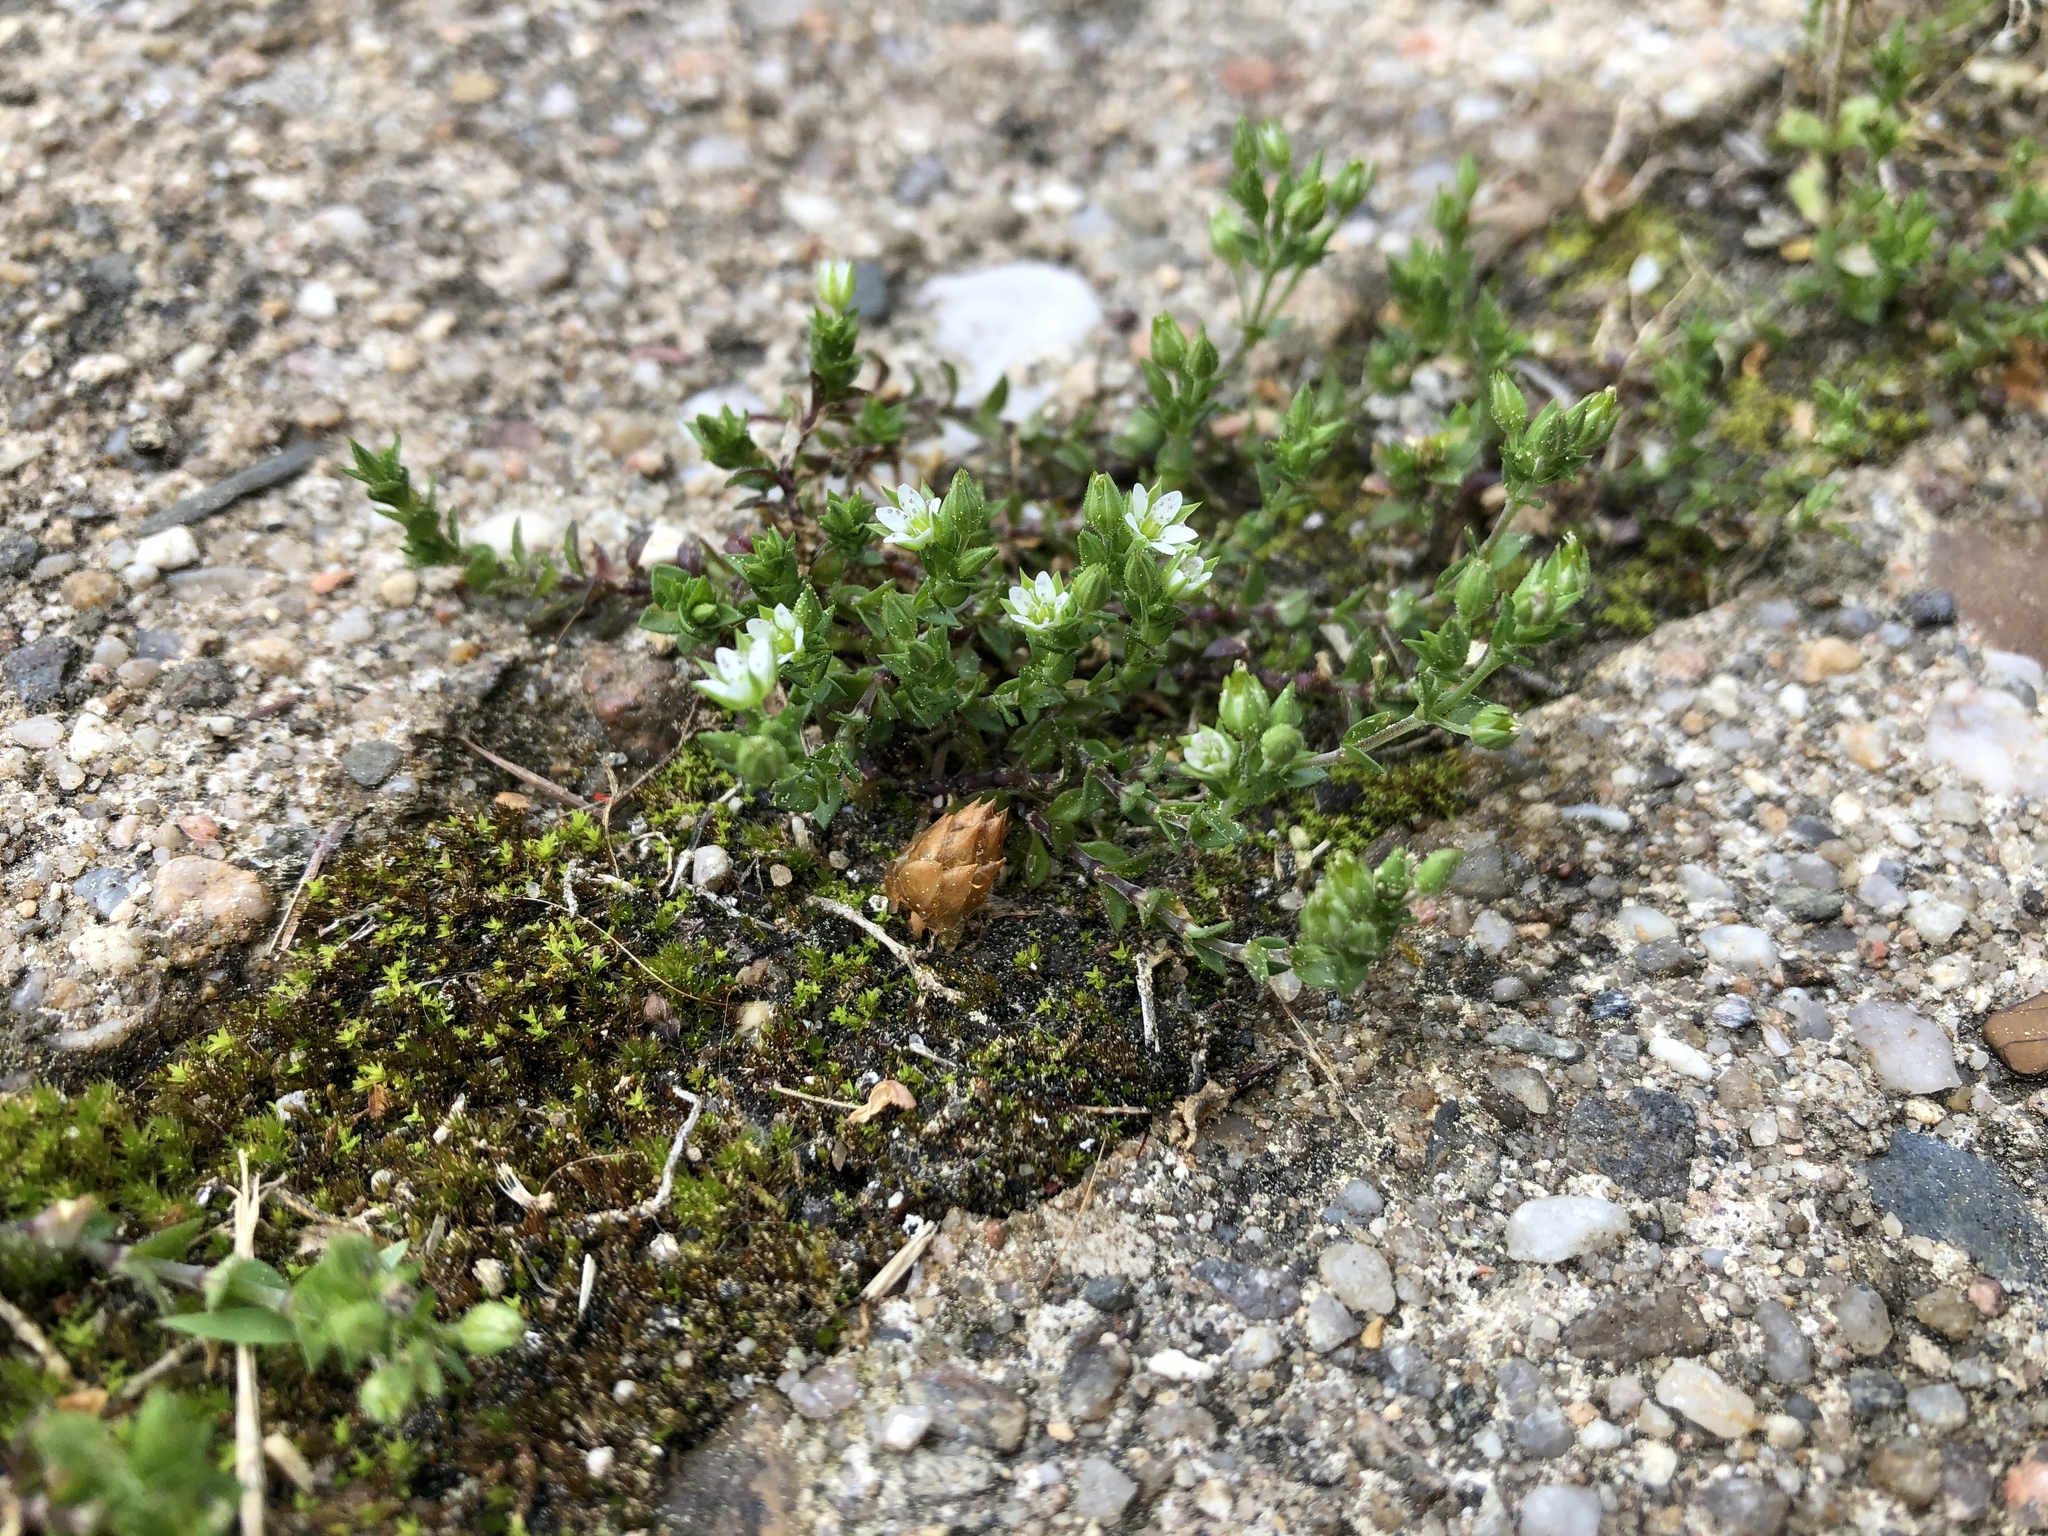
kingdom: Plantae
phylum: Tracheophyta
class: Magnoliopsida
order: Caryophyllales
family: Caryophyllaceae
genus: Arenaria
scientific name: Arenaria serpyllifolia
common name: Thyme-leaved sandwort
